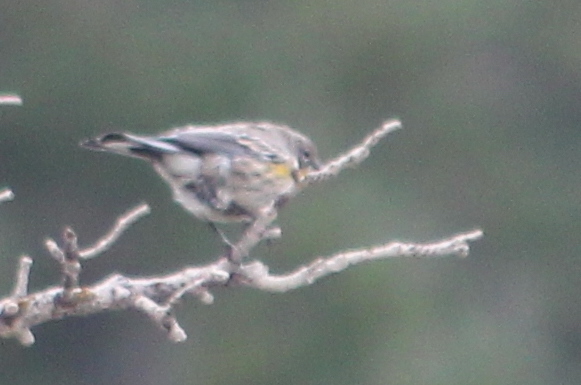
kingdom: Animalia
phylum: Chordata
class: Aves
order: Passeriformes
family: Parulidae
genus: Setophaga
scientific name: Setophaga coronata
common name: Myrtle warbler
